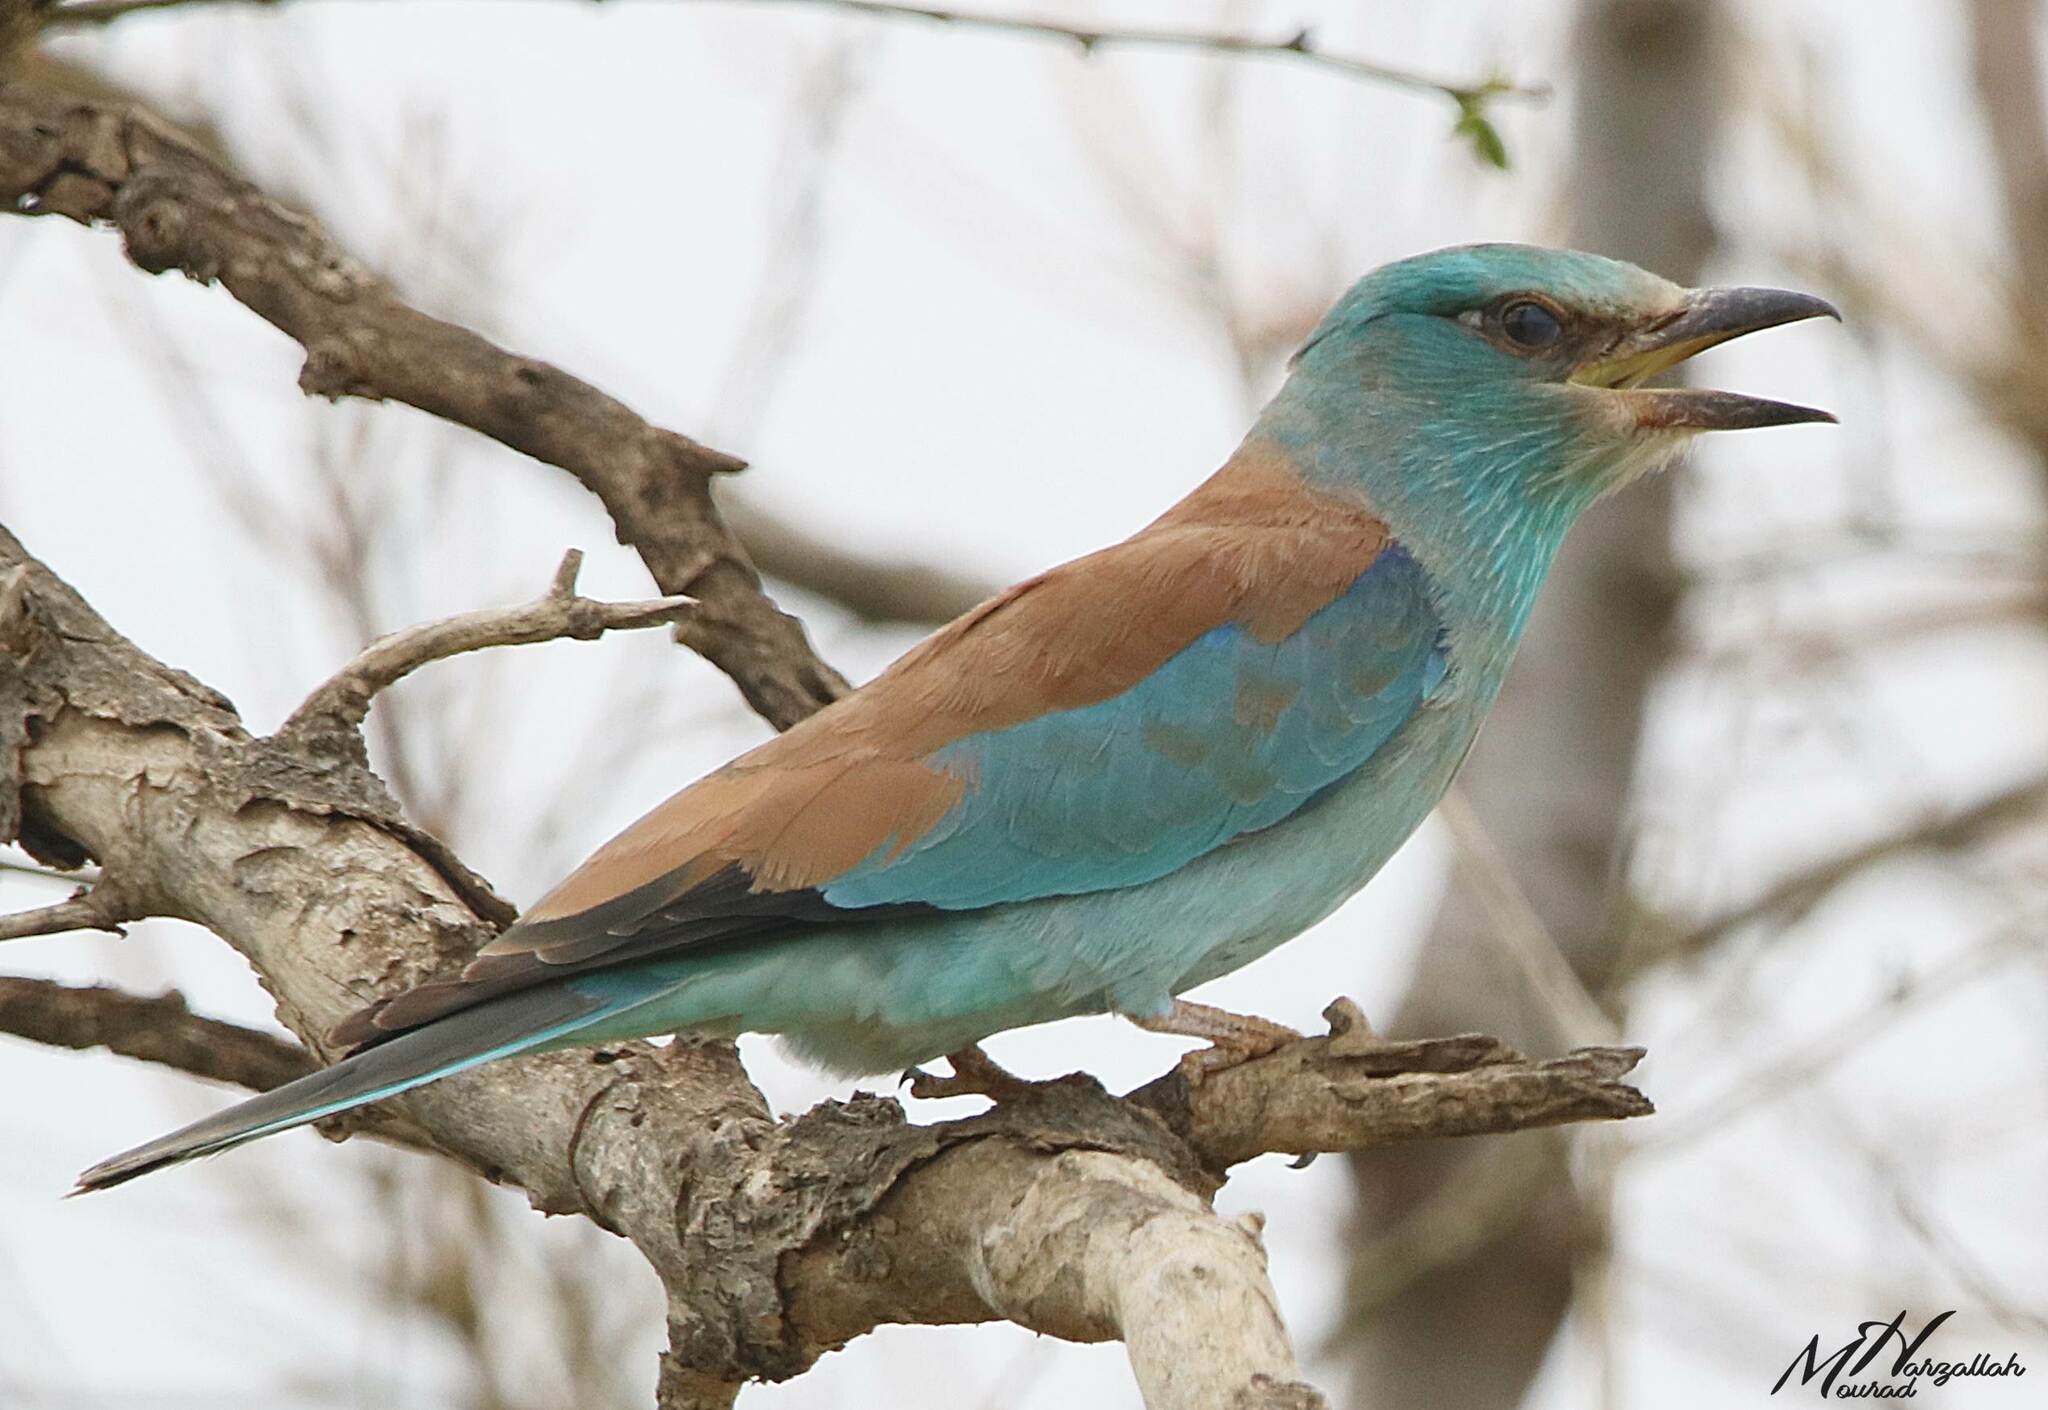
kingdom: Animalia
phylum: Chordata
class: Aves
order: Coraciiformes
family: Coraciidae
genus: Coracias
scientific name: Coracias garrulus
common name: European roller
